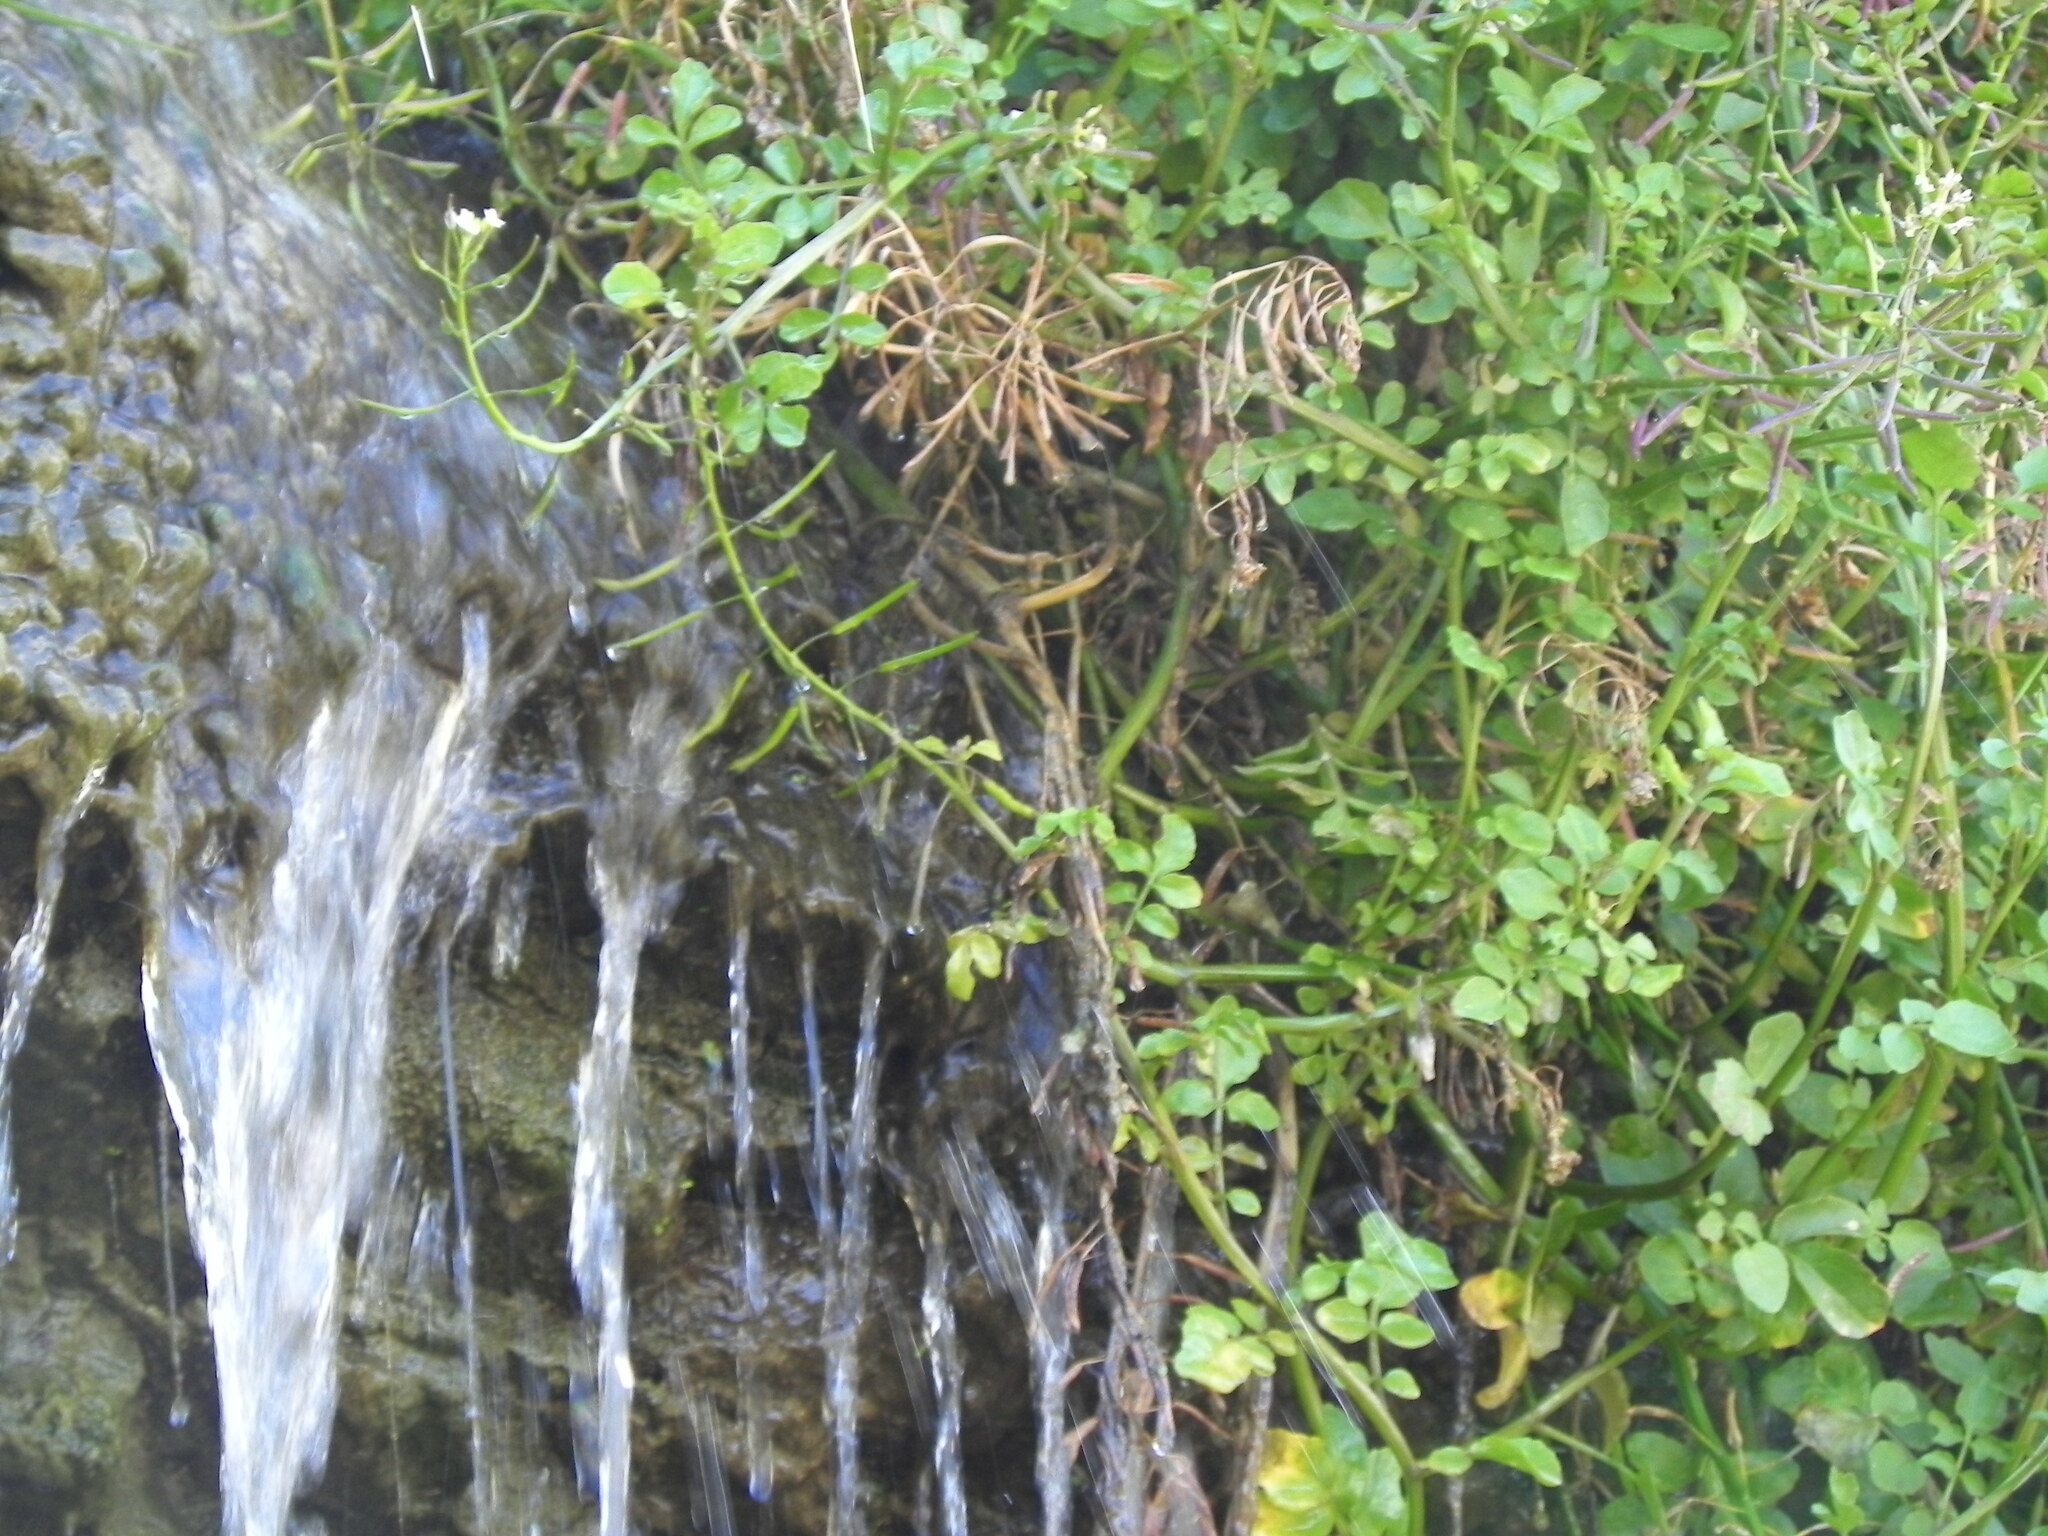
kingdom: Plantae
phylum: Tracheophyta
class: Magnoliopsida
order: Brassicales
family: Brassicaceae
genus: Nasturtium
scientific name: Nasturtium officinale
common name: Watercress
